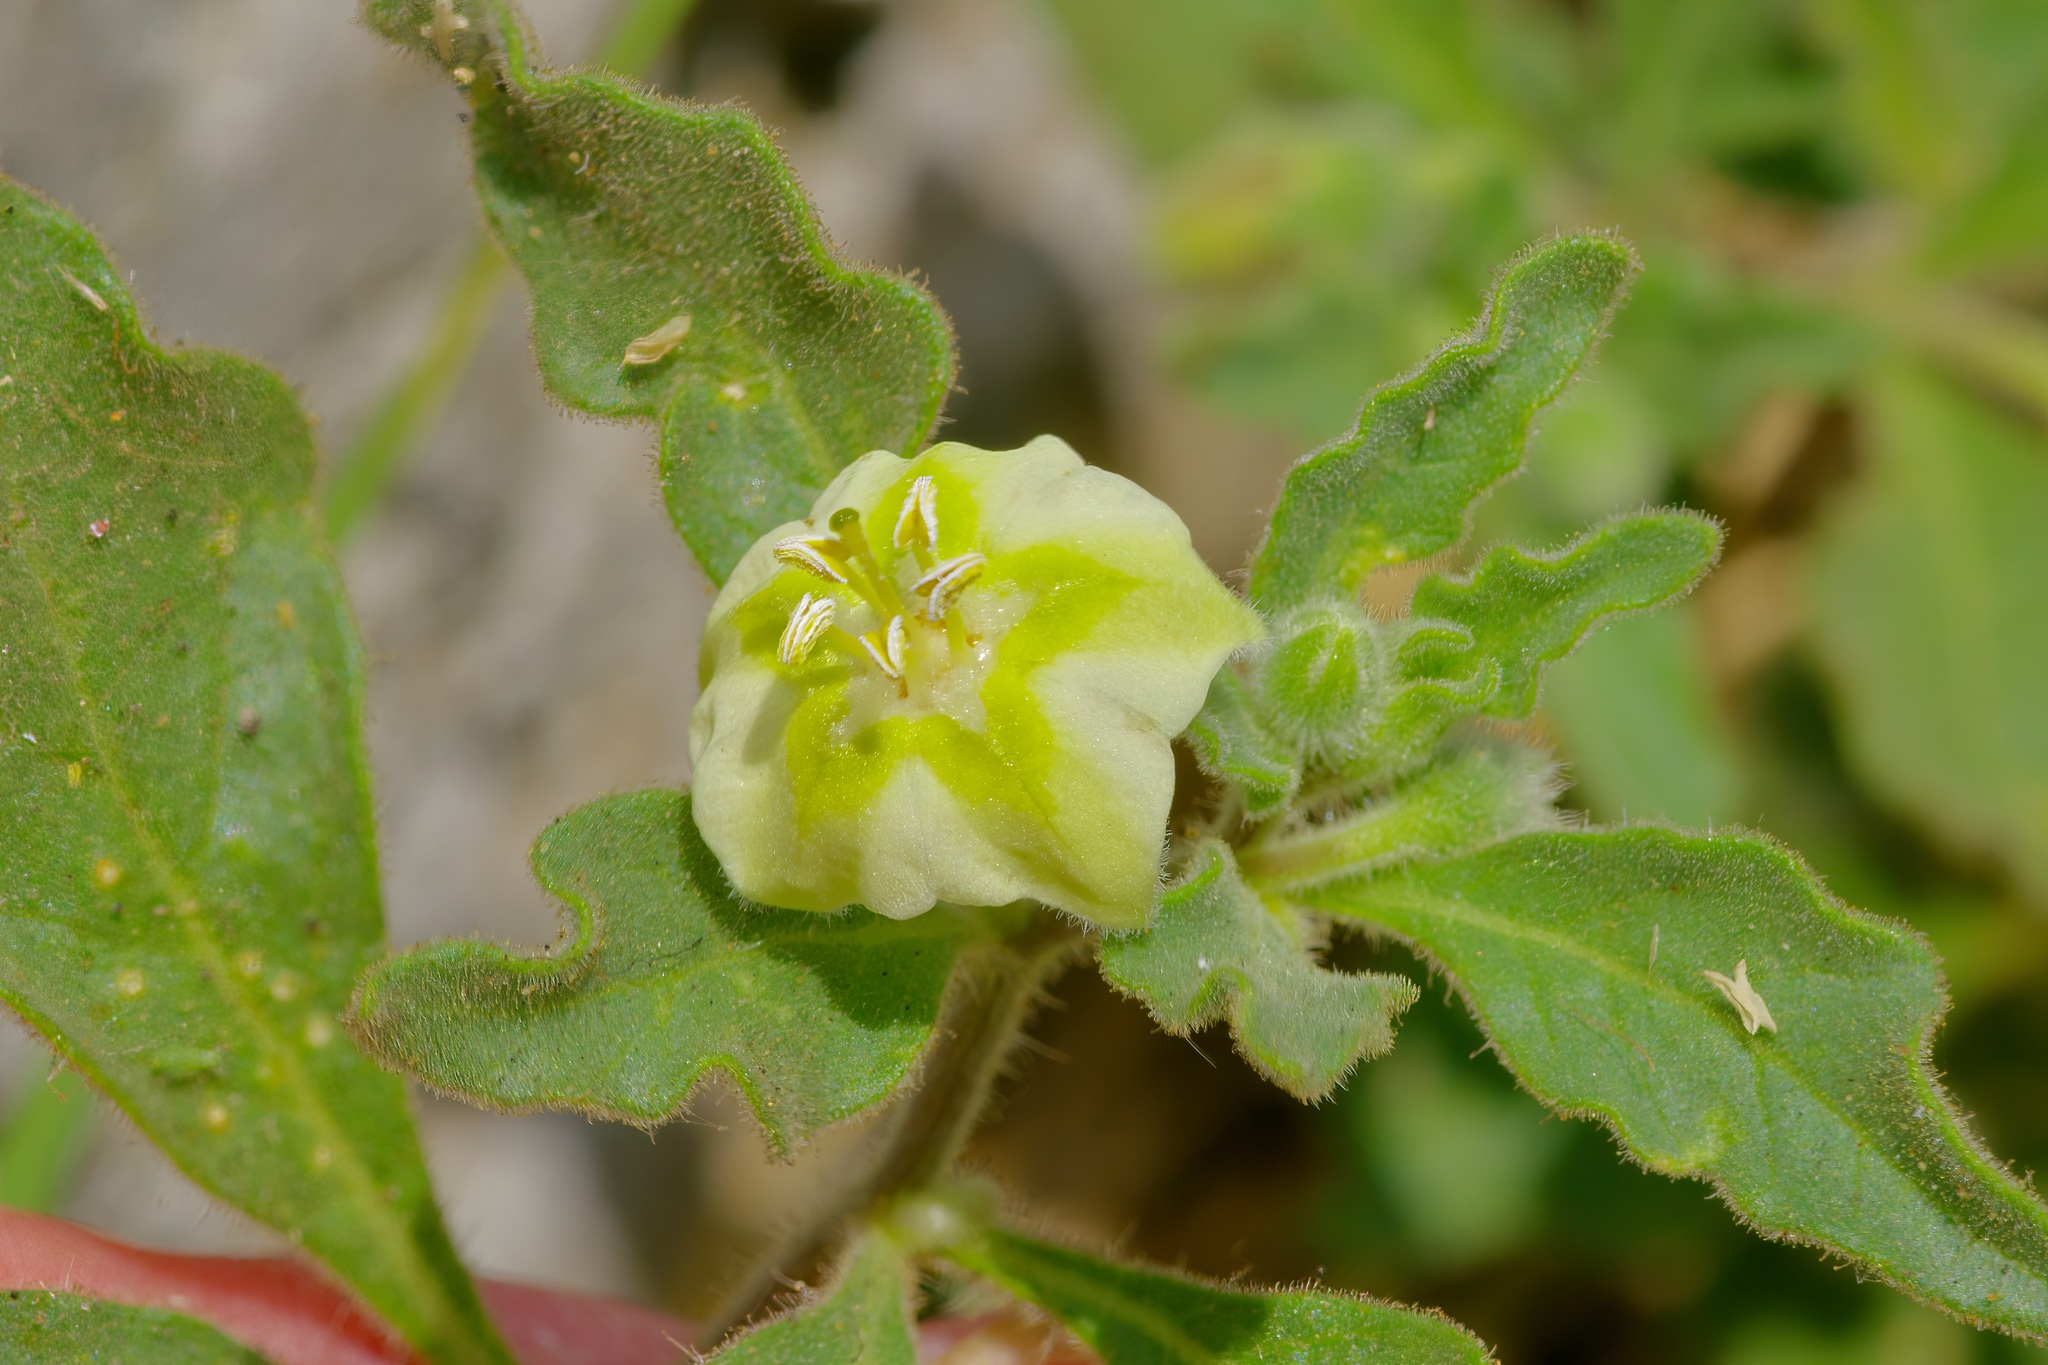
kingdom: Plantae
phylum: Tracheophyta
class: Magnoliopsida
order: Solanales
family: Solanaceae
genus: Chamaesaracha
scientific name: Chamaesaracha sordida
